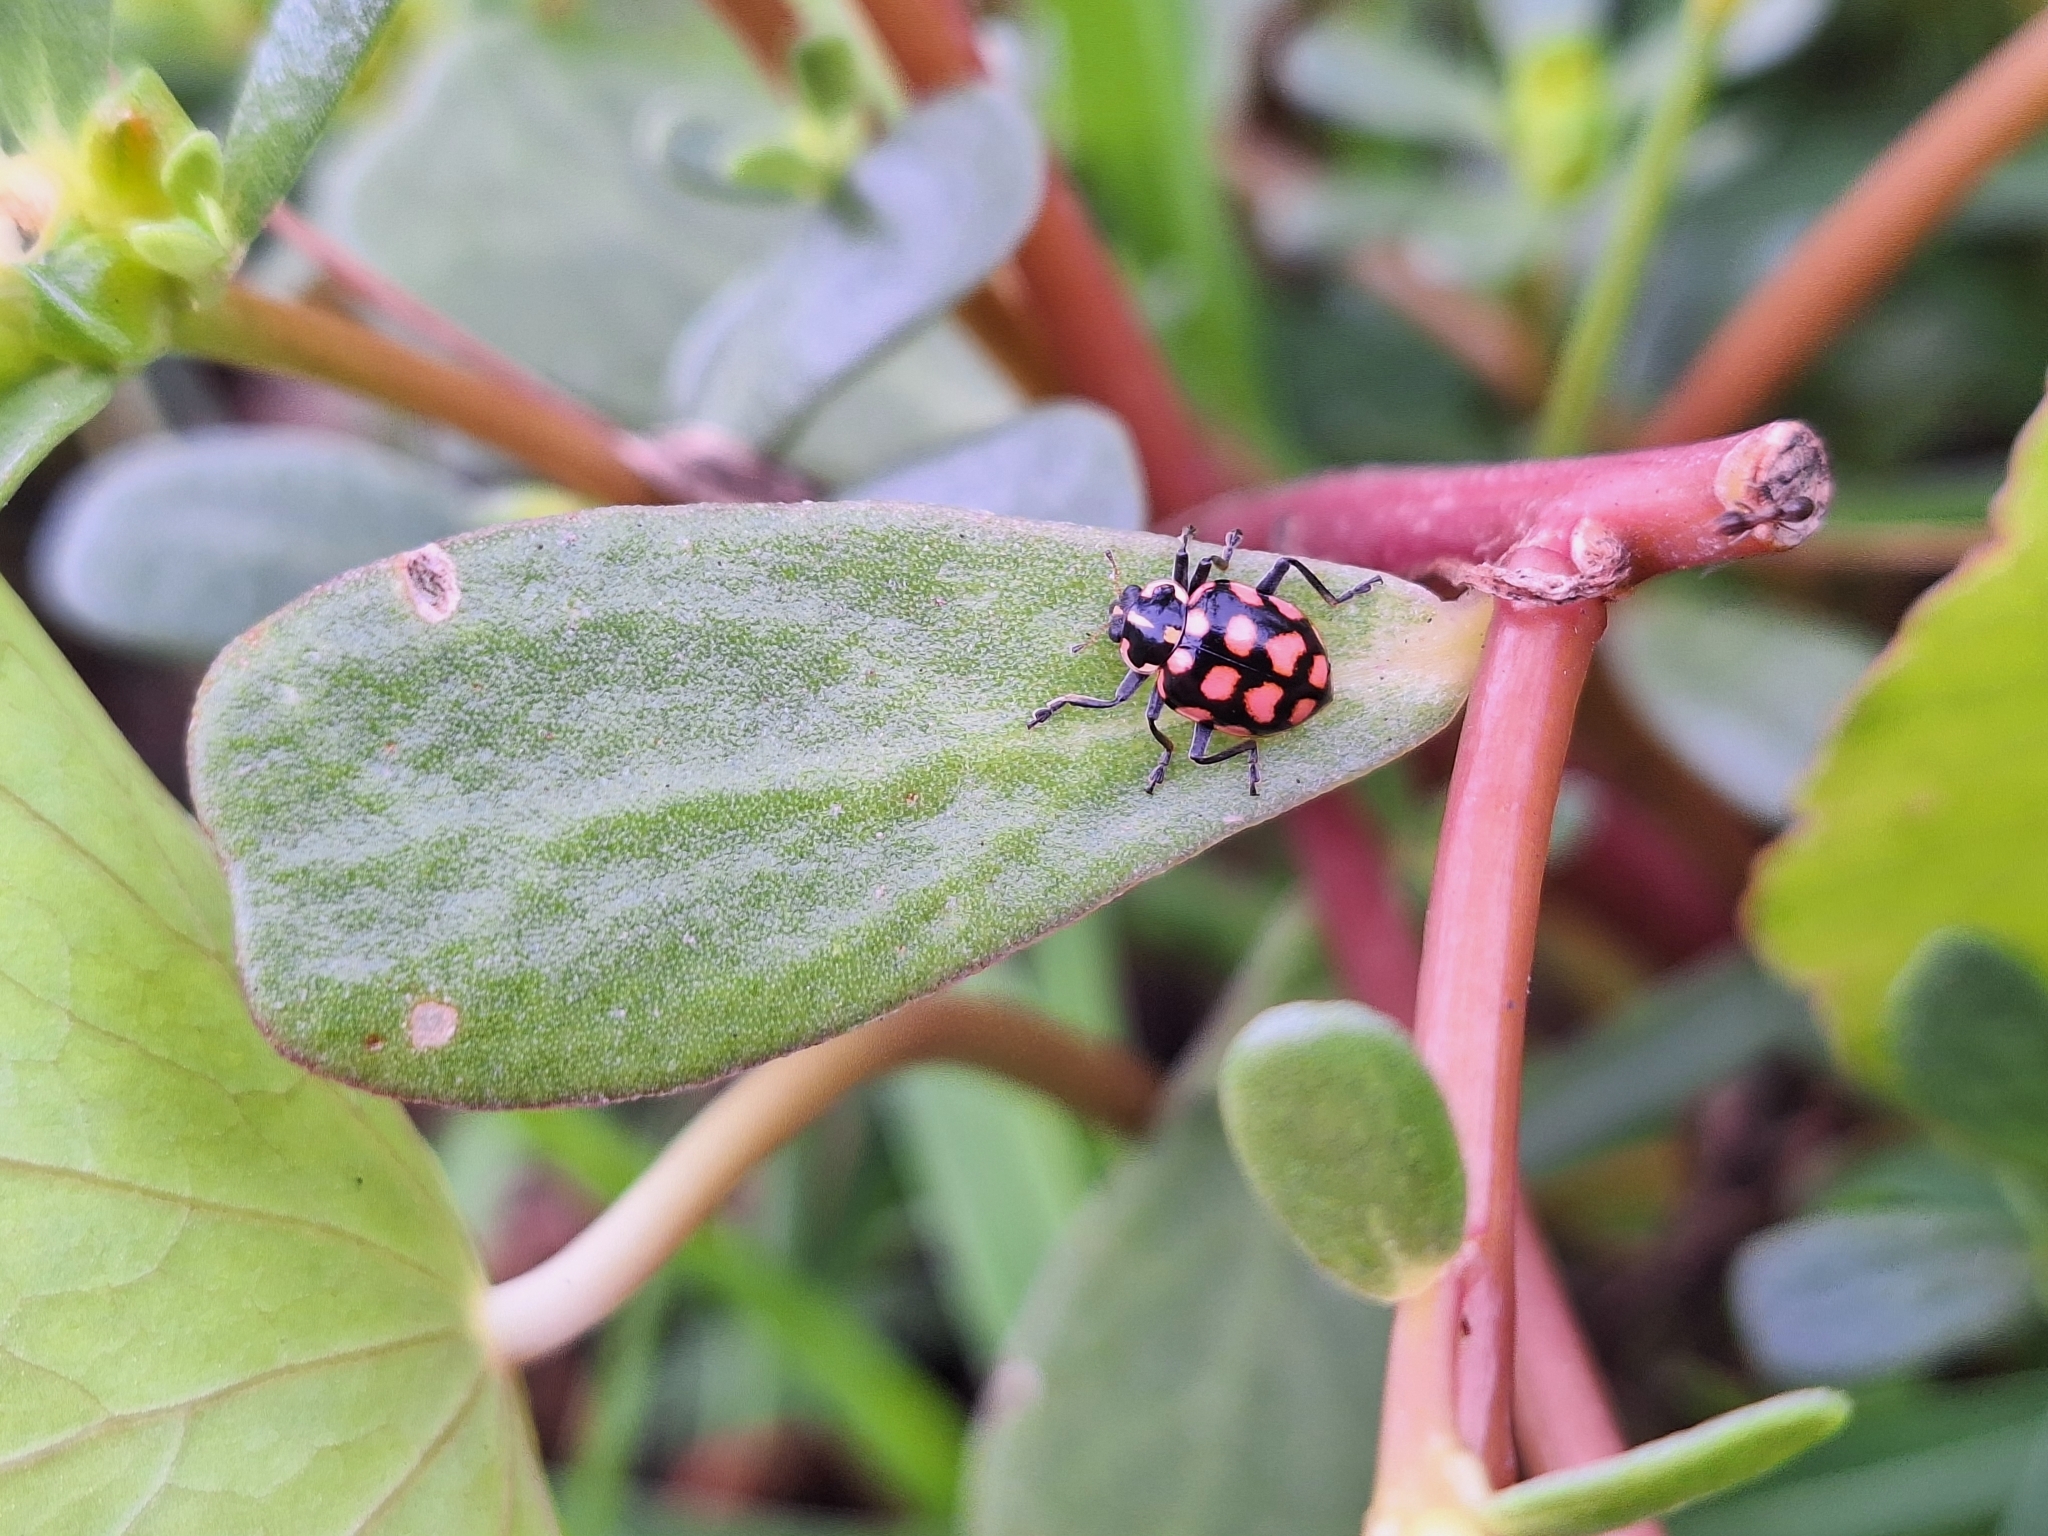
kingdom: Animalia
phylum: Arthropoda
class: Insecta
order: Coleoptera
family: Coccinellidae
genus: Coleomegilla
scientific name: Coleomegilla
